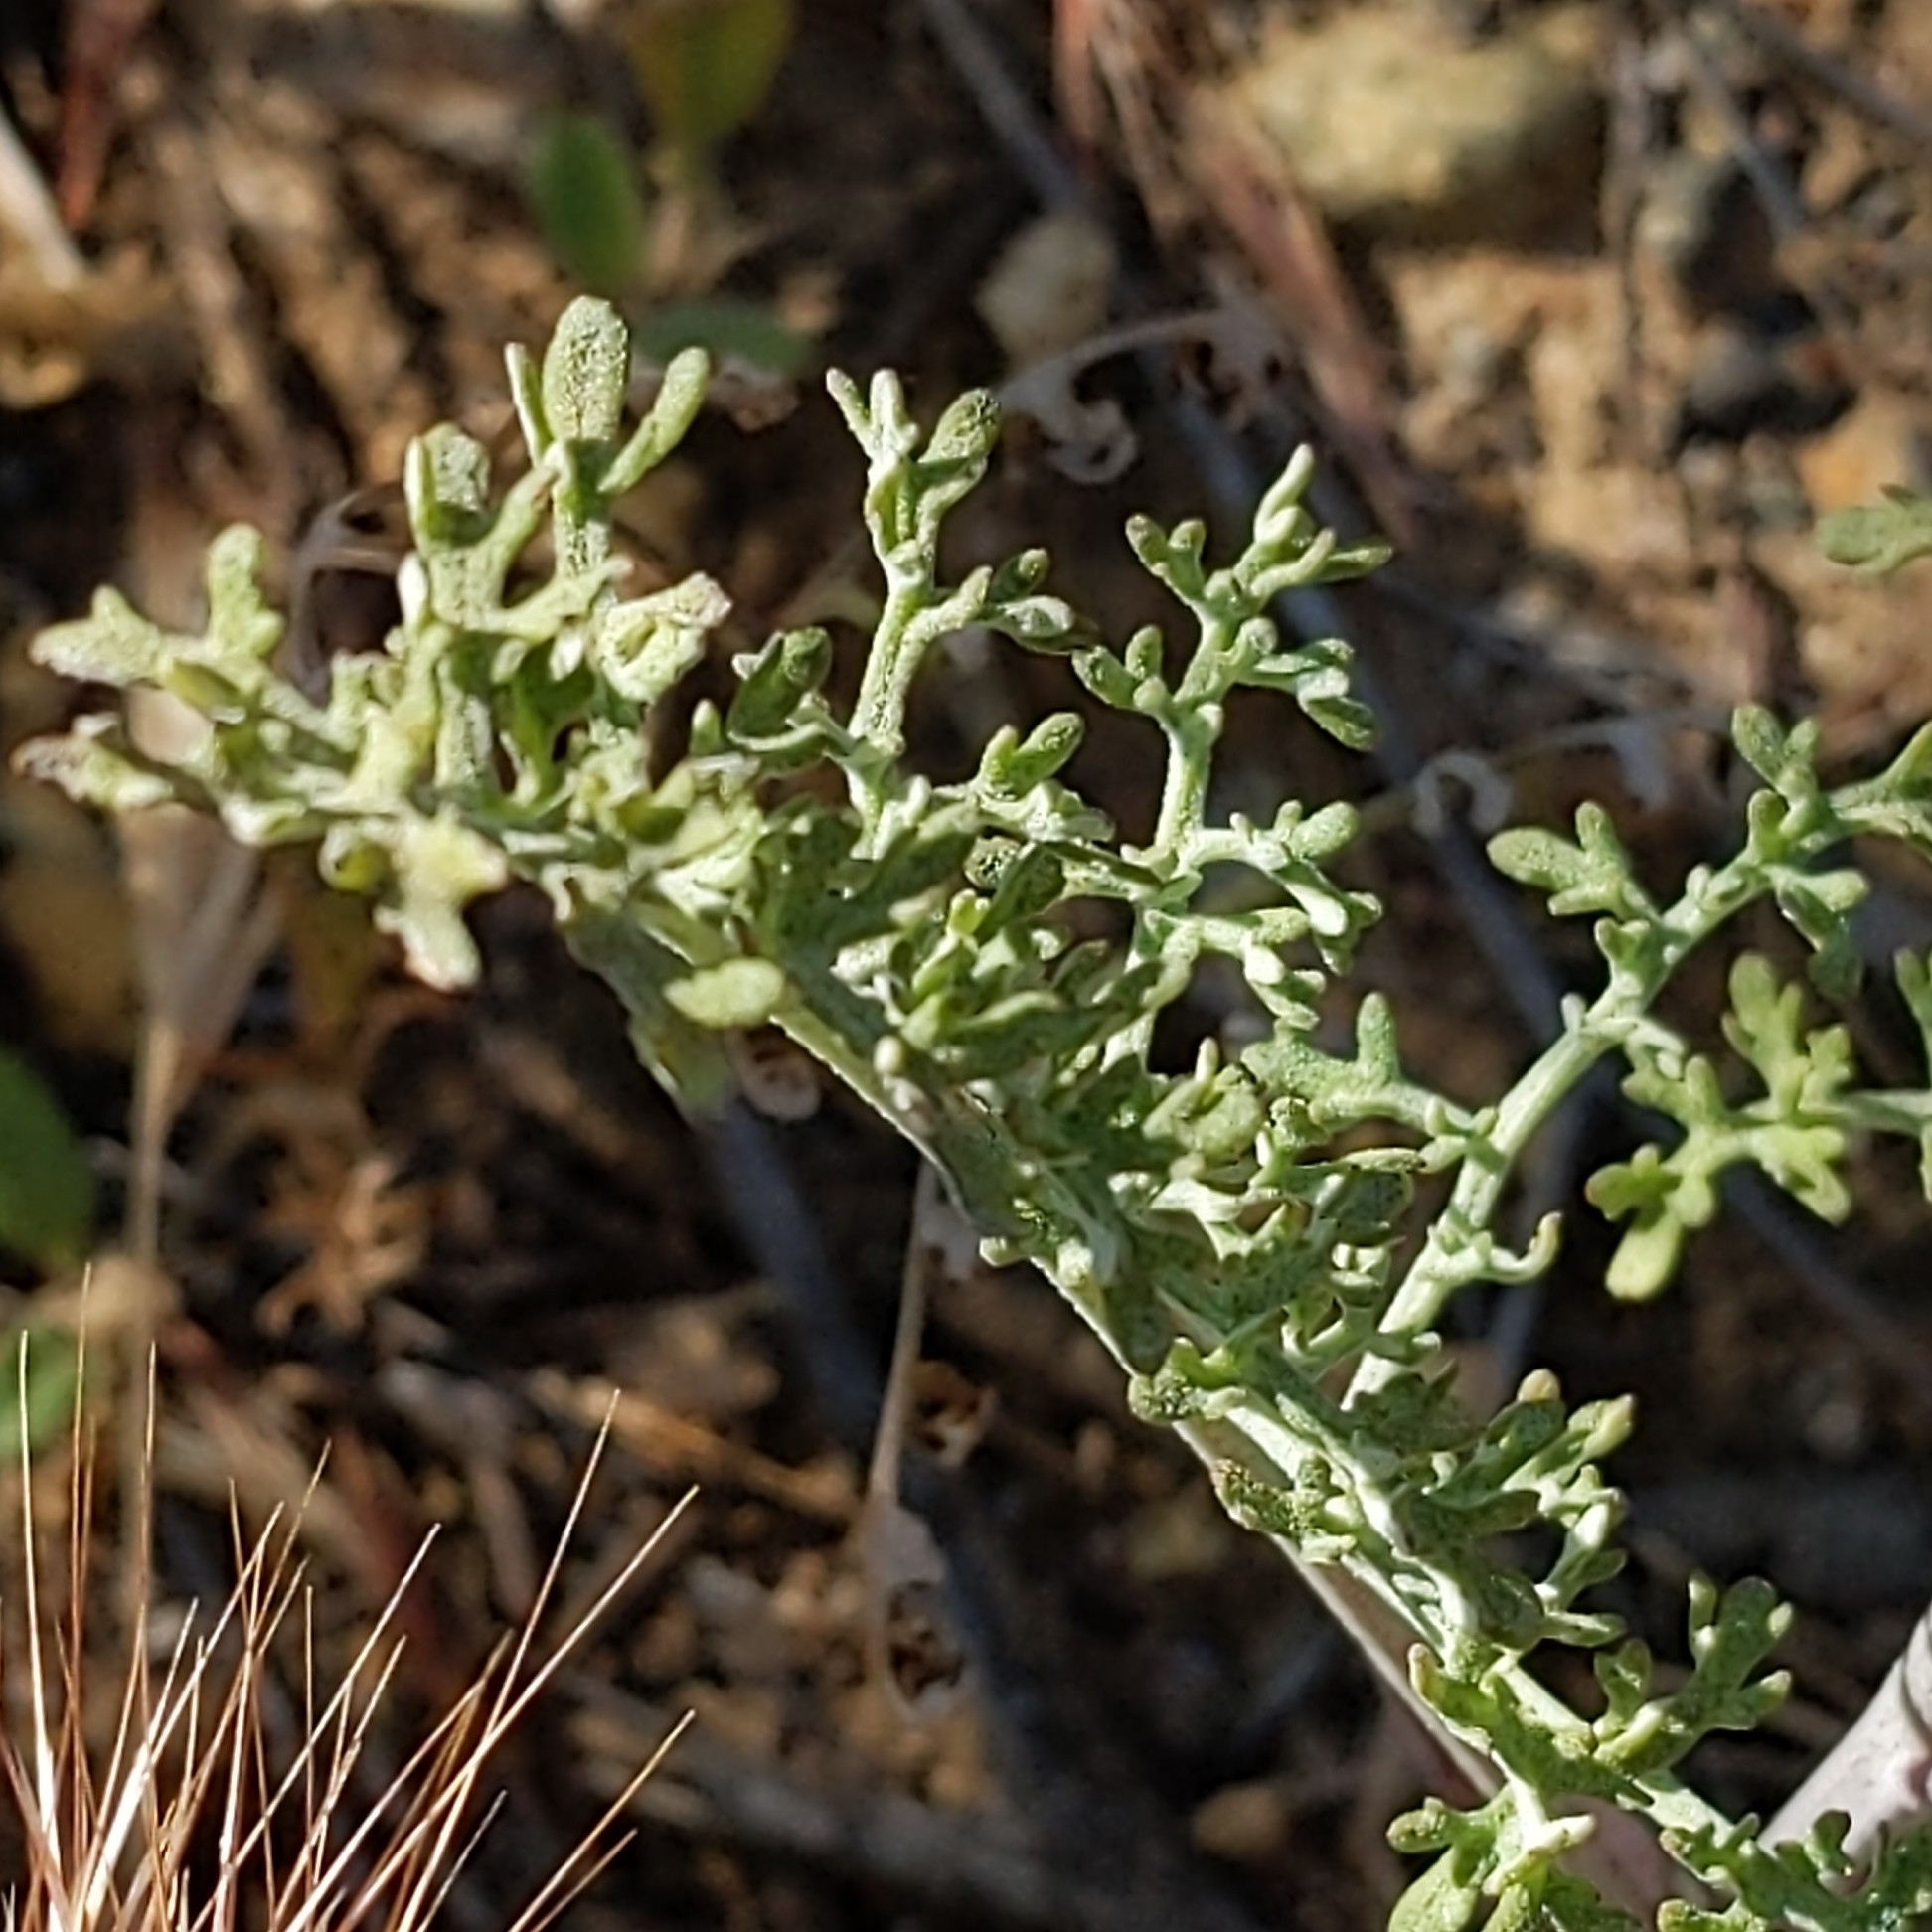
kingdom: Plantae
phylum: Tracheophyta
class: Magnoliopsida
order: Asterales
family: Asteraceae
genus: Chaenactis
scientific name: Chaenactis artemisiifolia
